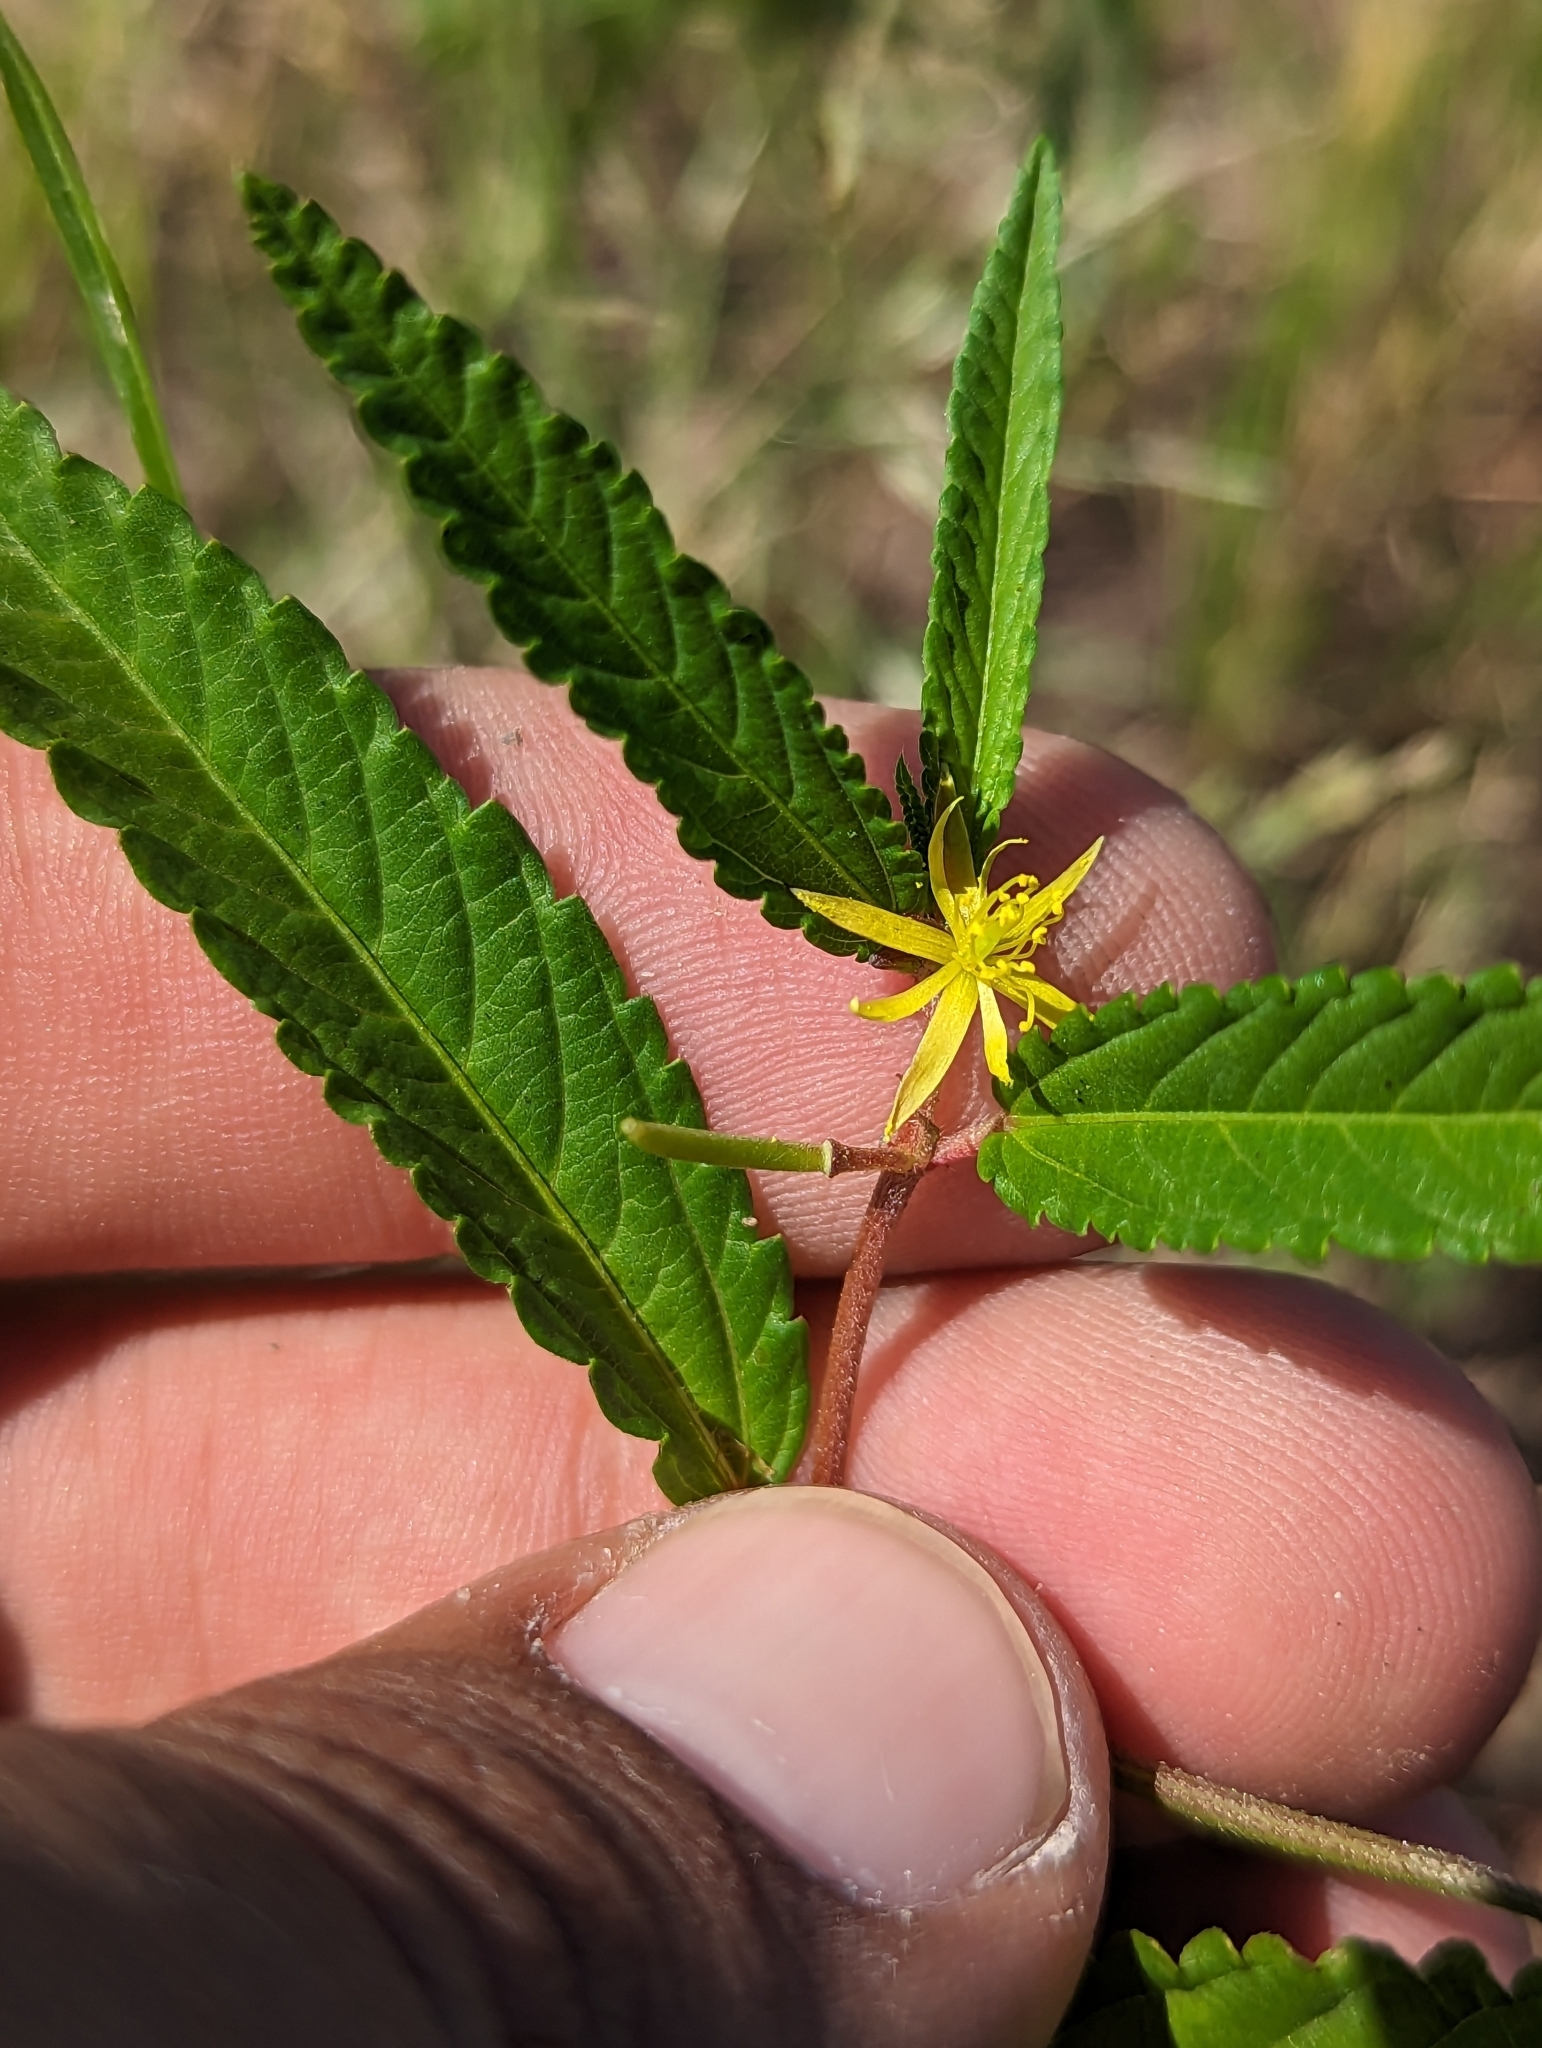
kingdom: Plantae
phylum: Tracheophyta
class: Magnoliopsida
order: Malvales
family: Malvaceae
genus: Corchorus
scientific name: Corchorus hirtus
